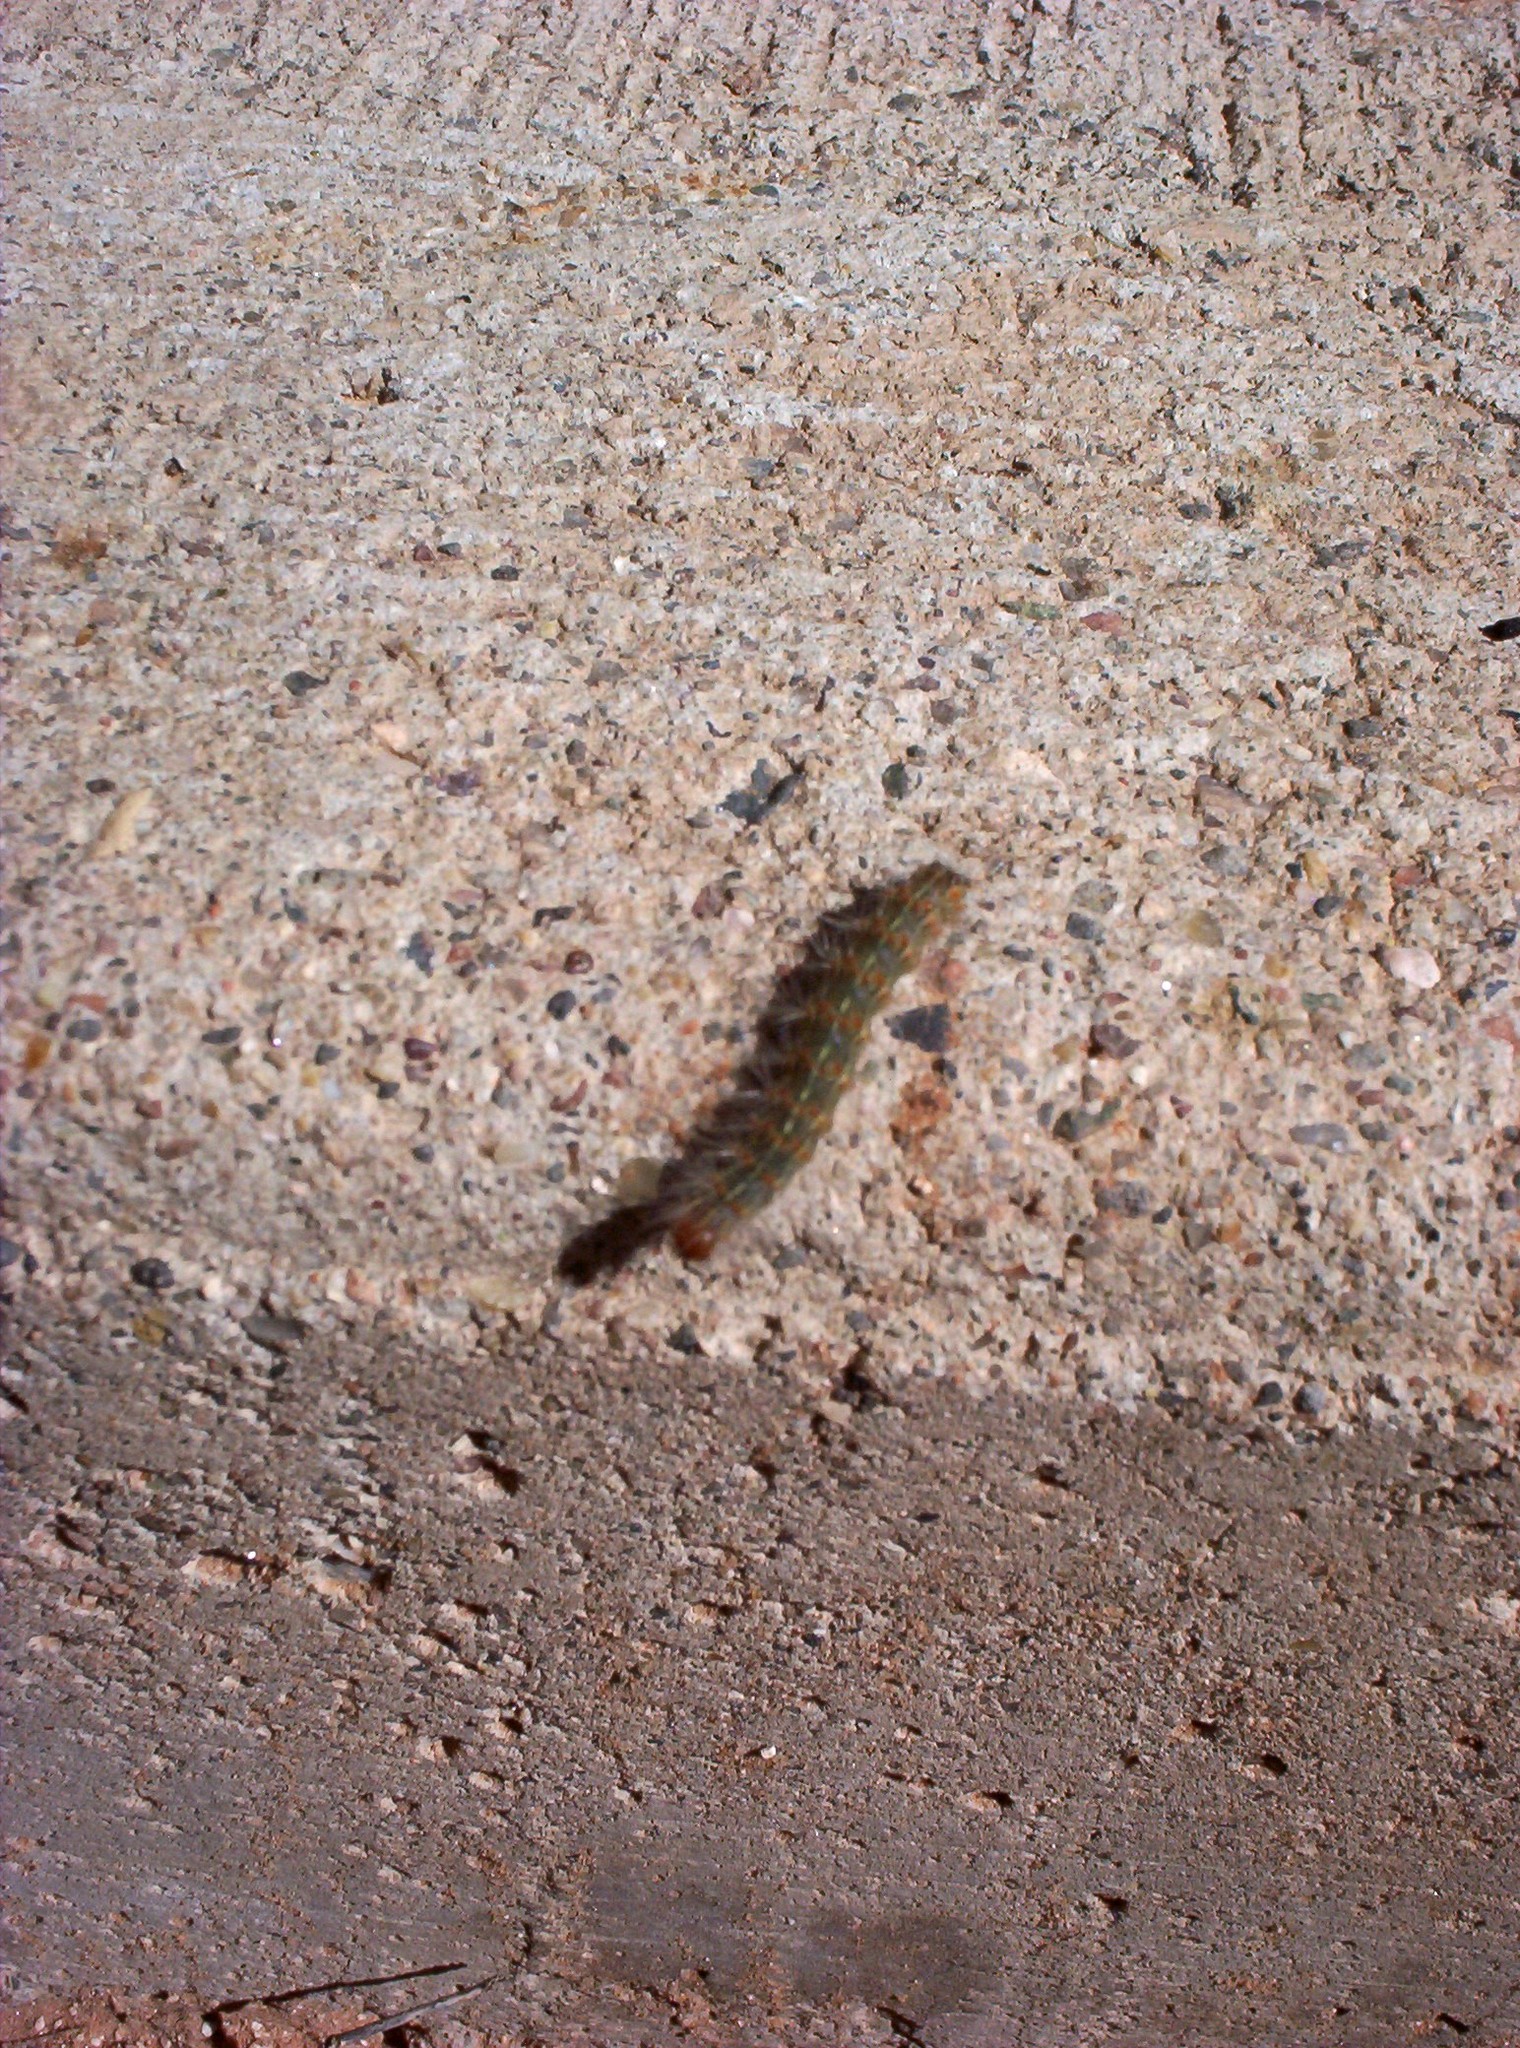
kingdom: Animalia
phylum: Arthropoda
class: Insecta
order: Lepidoptera
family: Erebidae
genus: Hyphantria
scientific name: Hyphantria cunea
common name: American white moth
